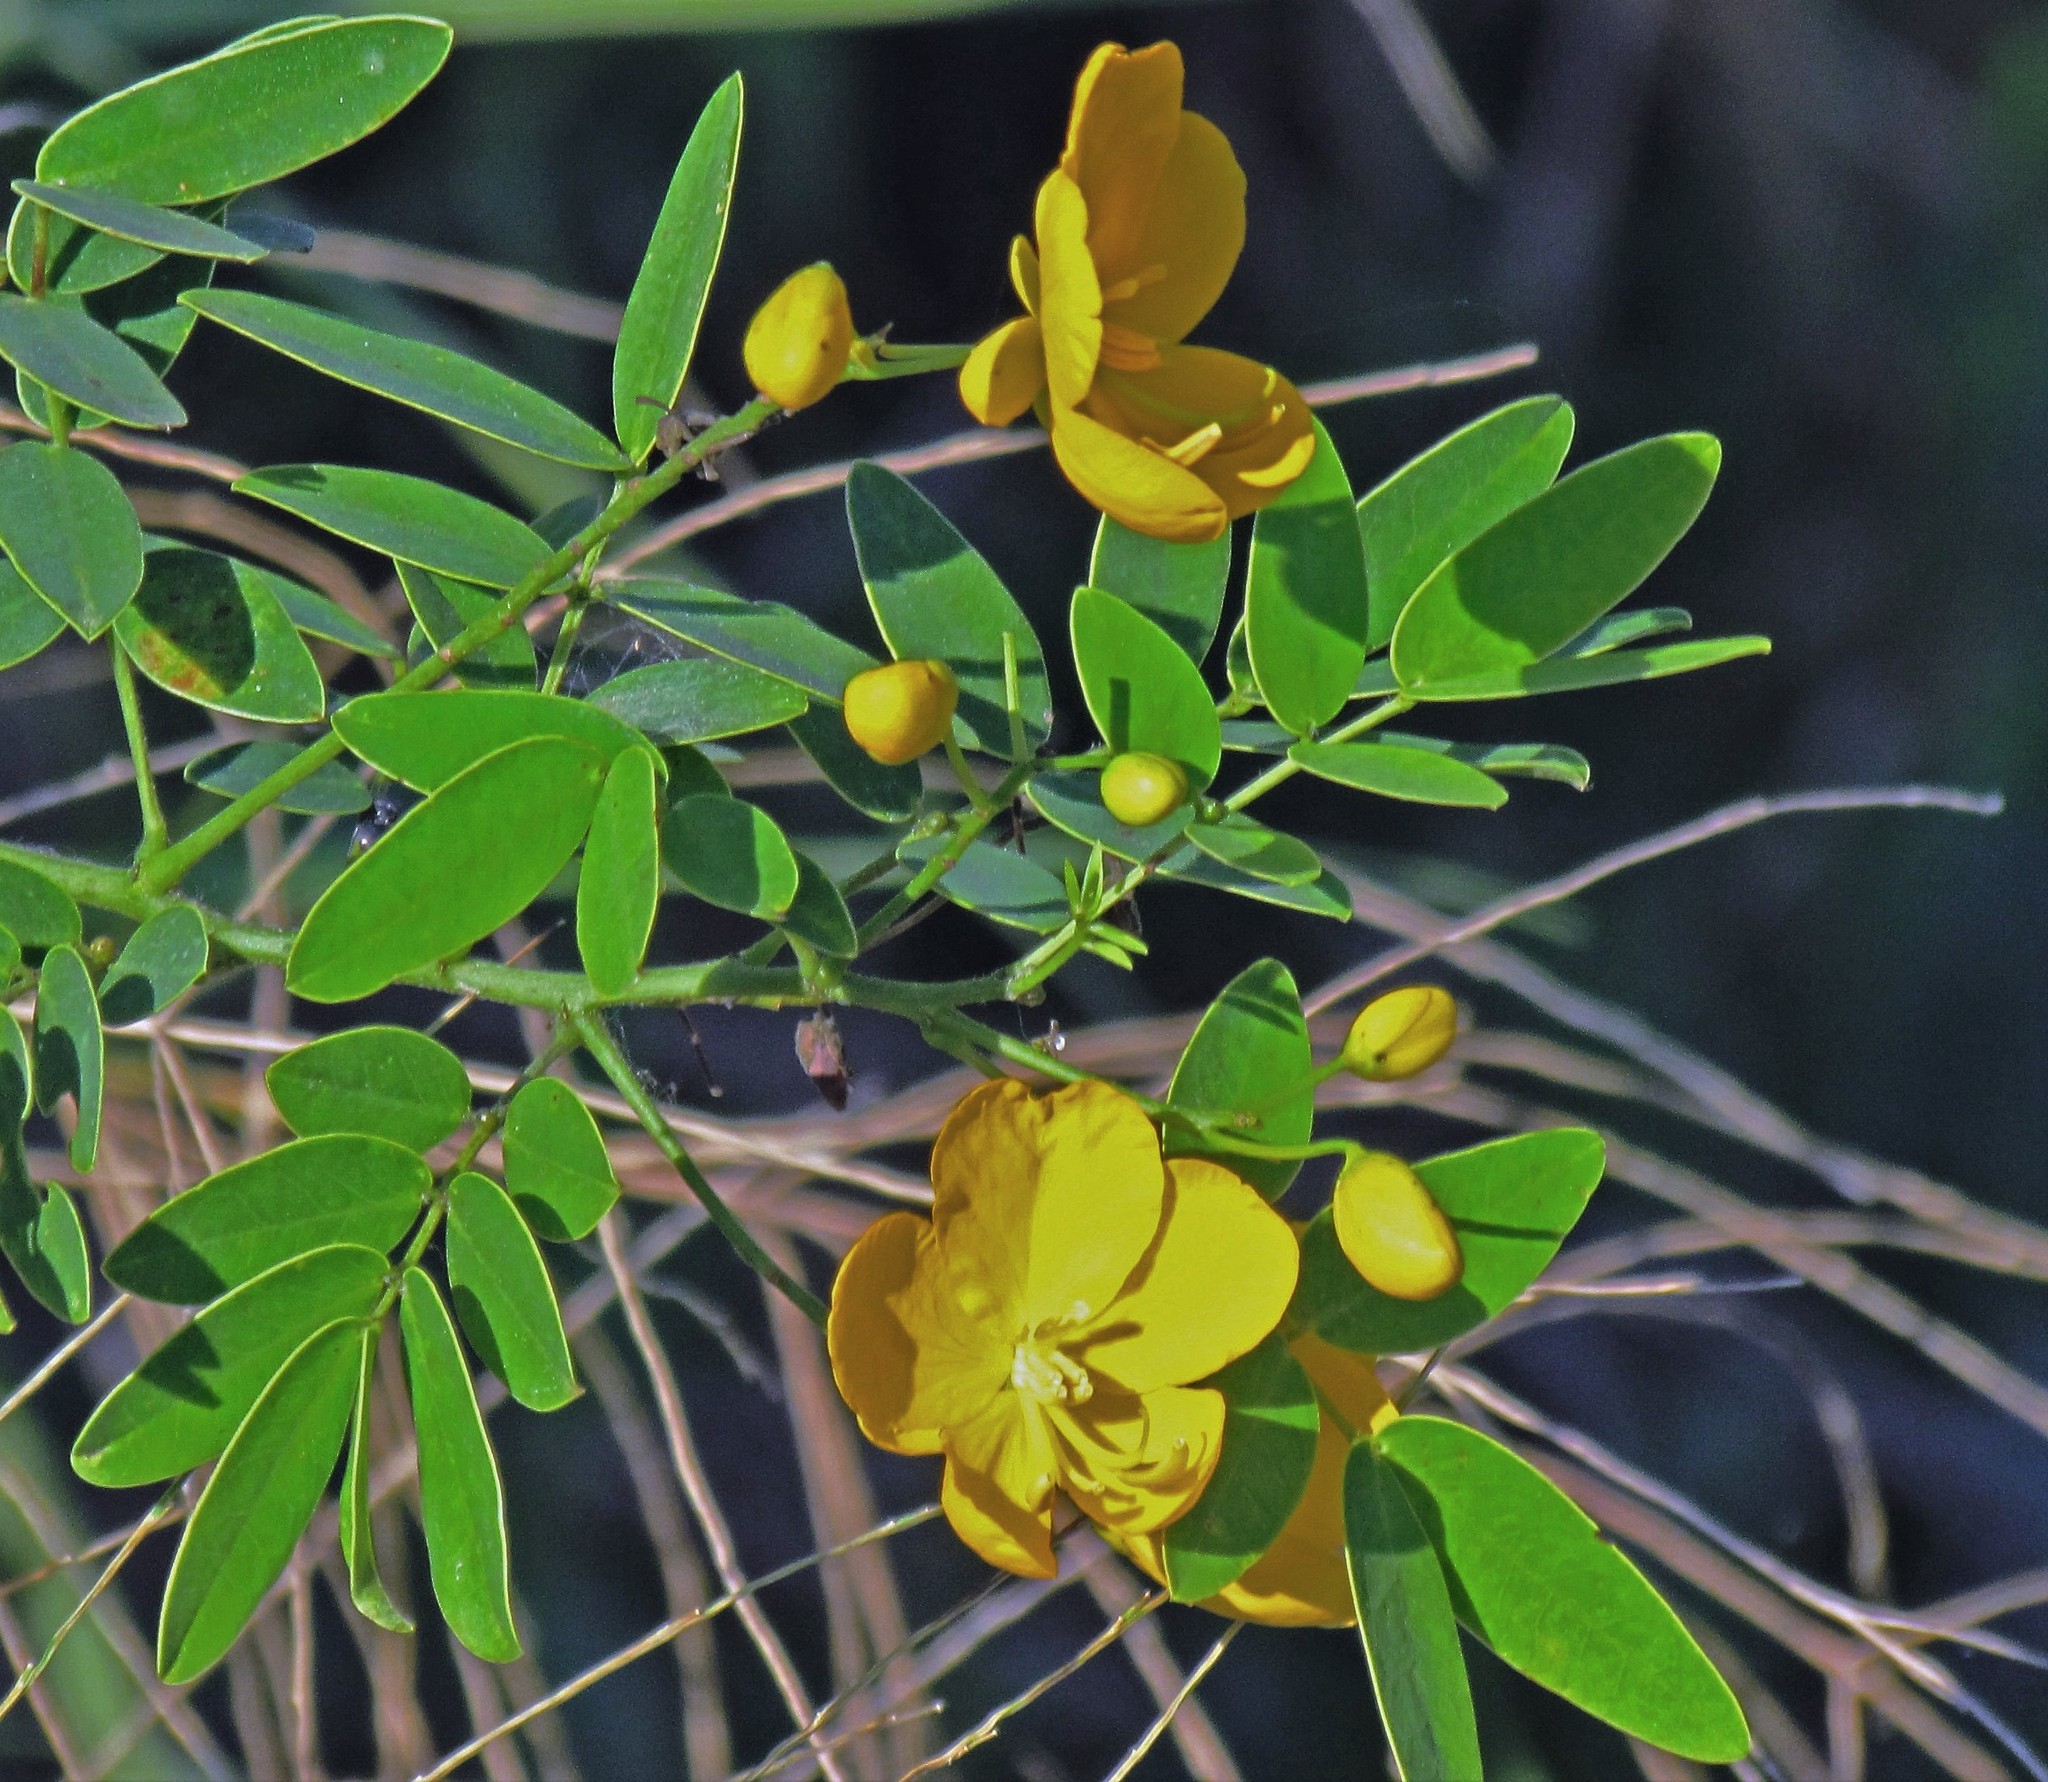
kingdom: Plantae
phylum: Tracheophyta
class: Magnoliopsida
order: Fabales
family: Fabaceae
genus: Senna
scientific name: Senna pendula
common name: Easter cassia
